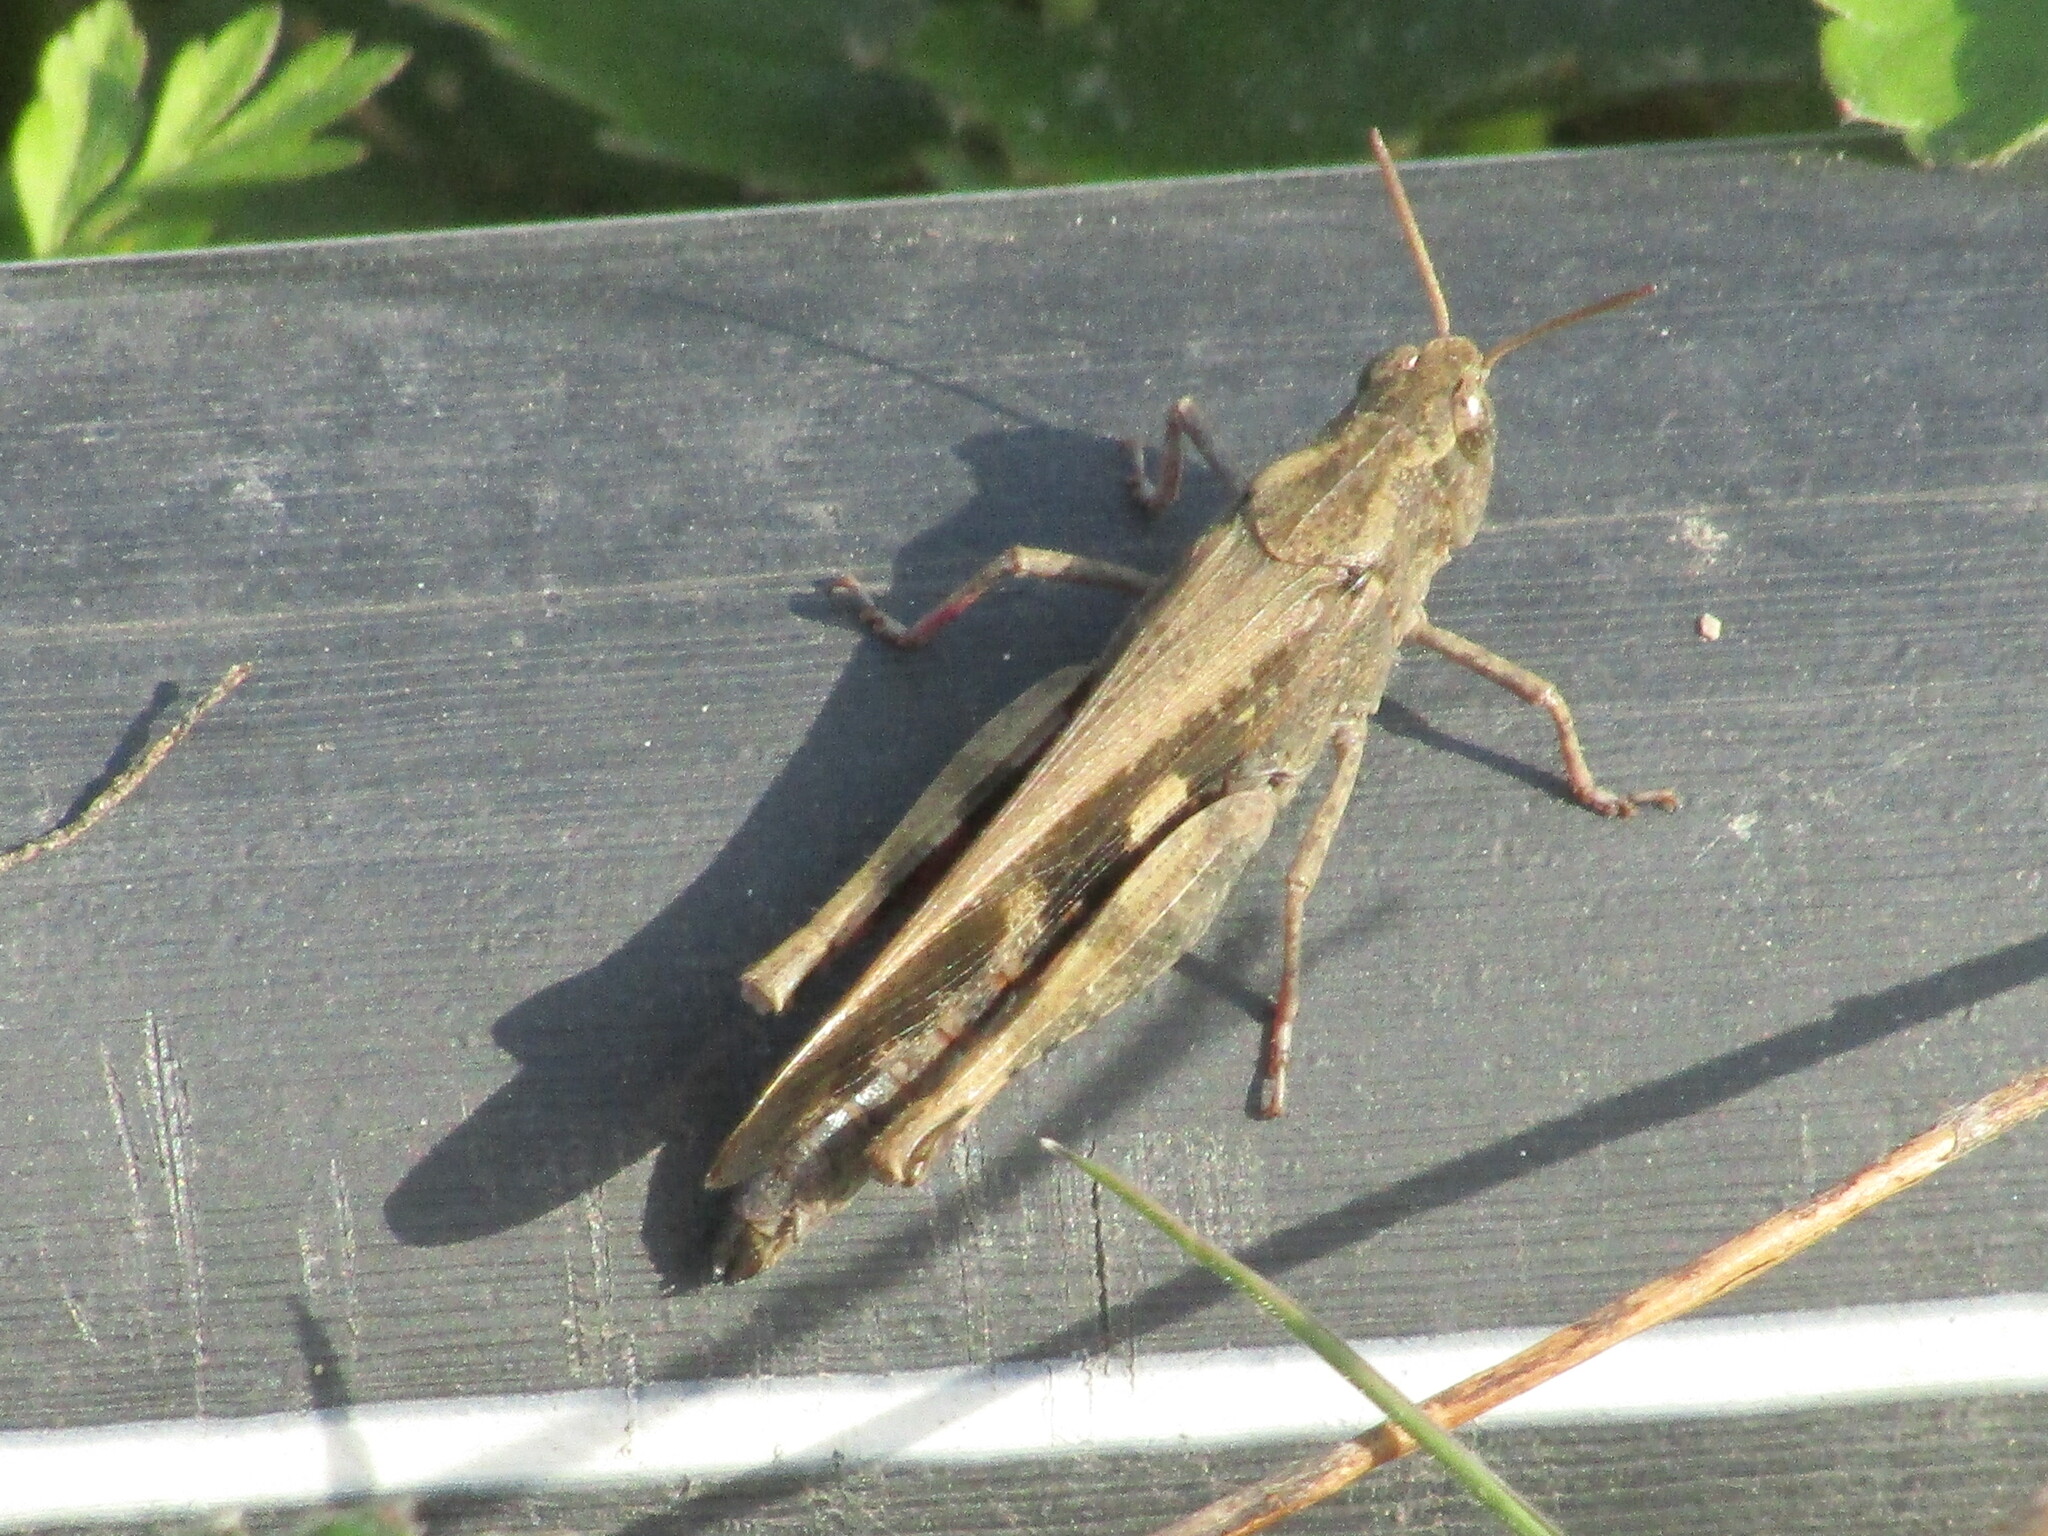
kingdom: Animalia
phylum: Arthropoda
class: Insecta
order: Orthoptera
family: Acrididae
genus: Aiolopus
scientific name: Aiolopus strepens
